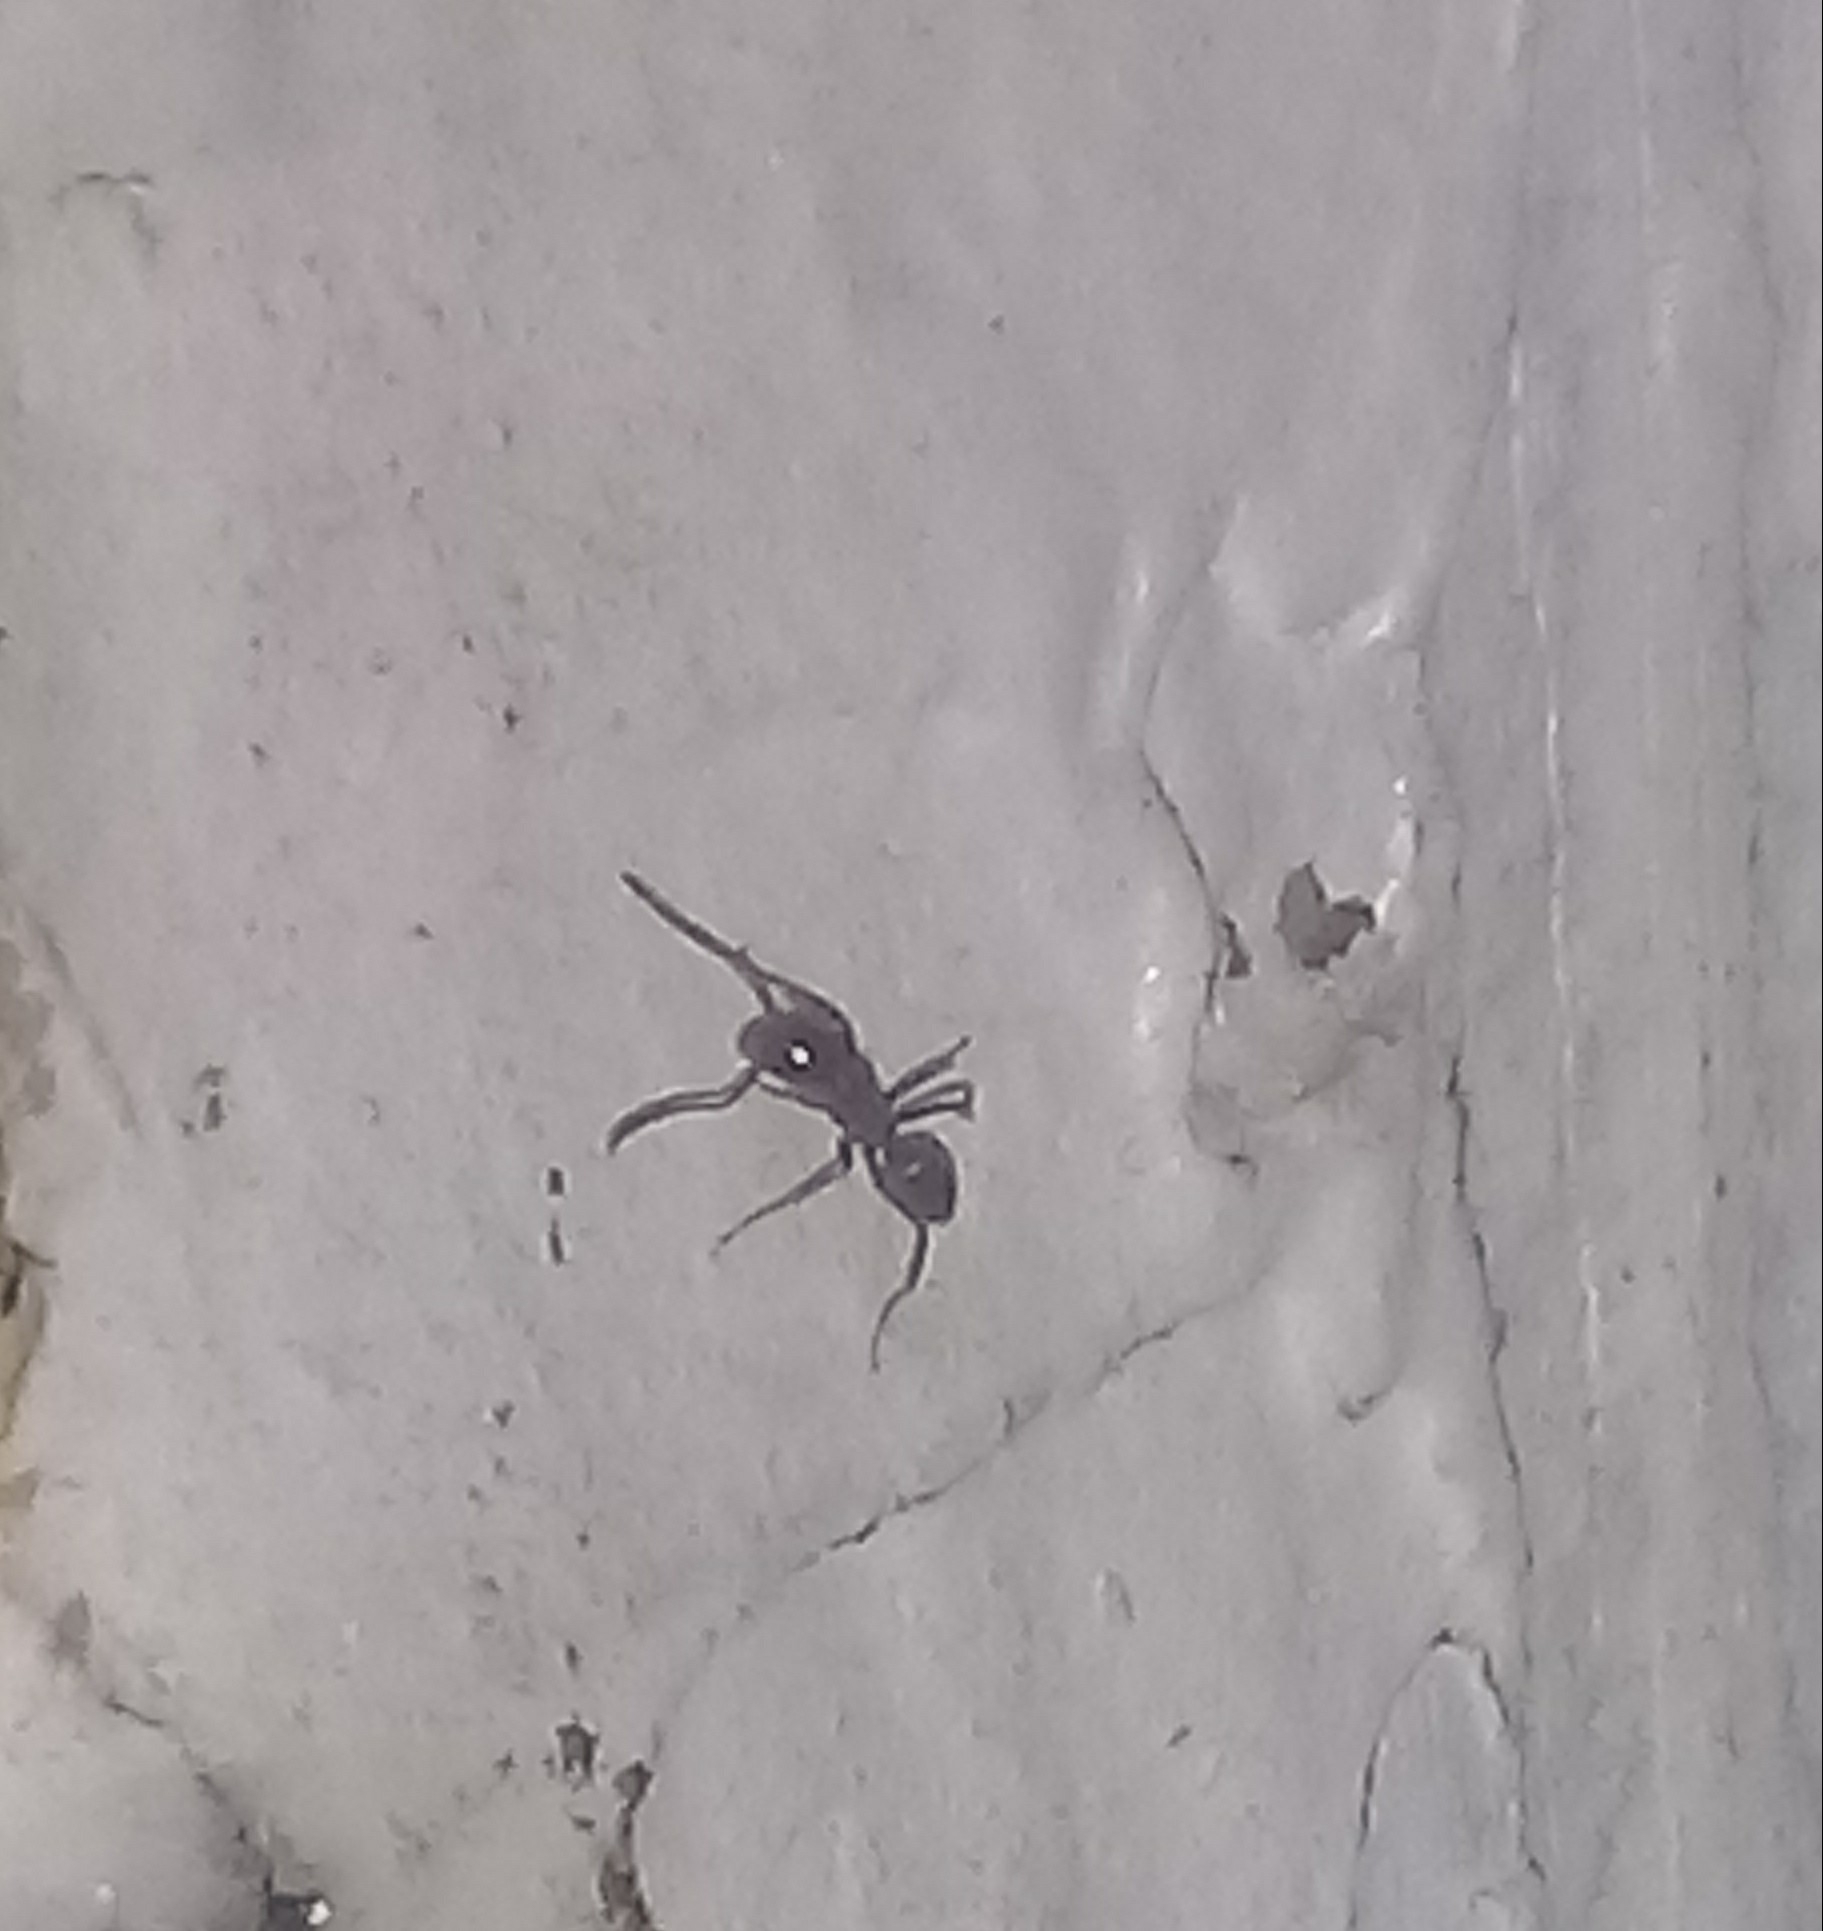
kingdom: Animalia
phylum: Arthropoda
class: Insecta
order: Hymenoptera
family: Formicidae
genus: Linepithema
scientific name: Linepithema humile
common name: Argentine ant
